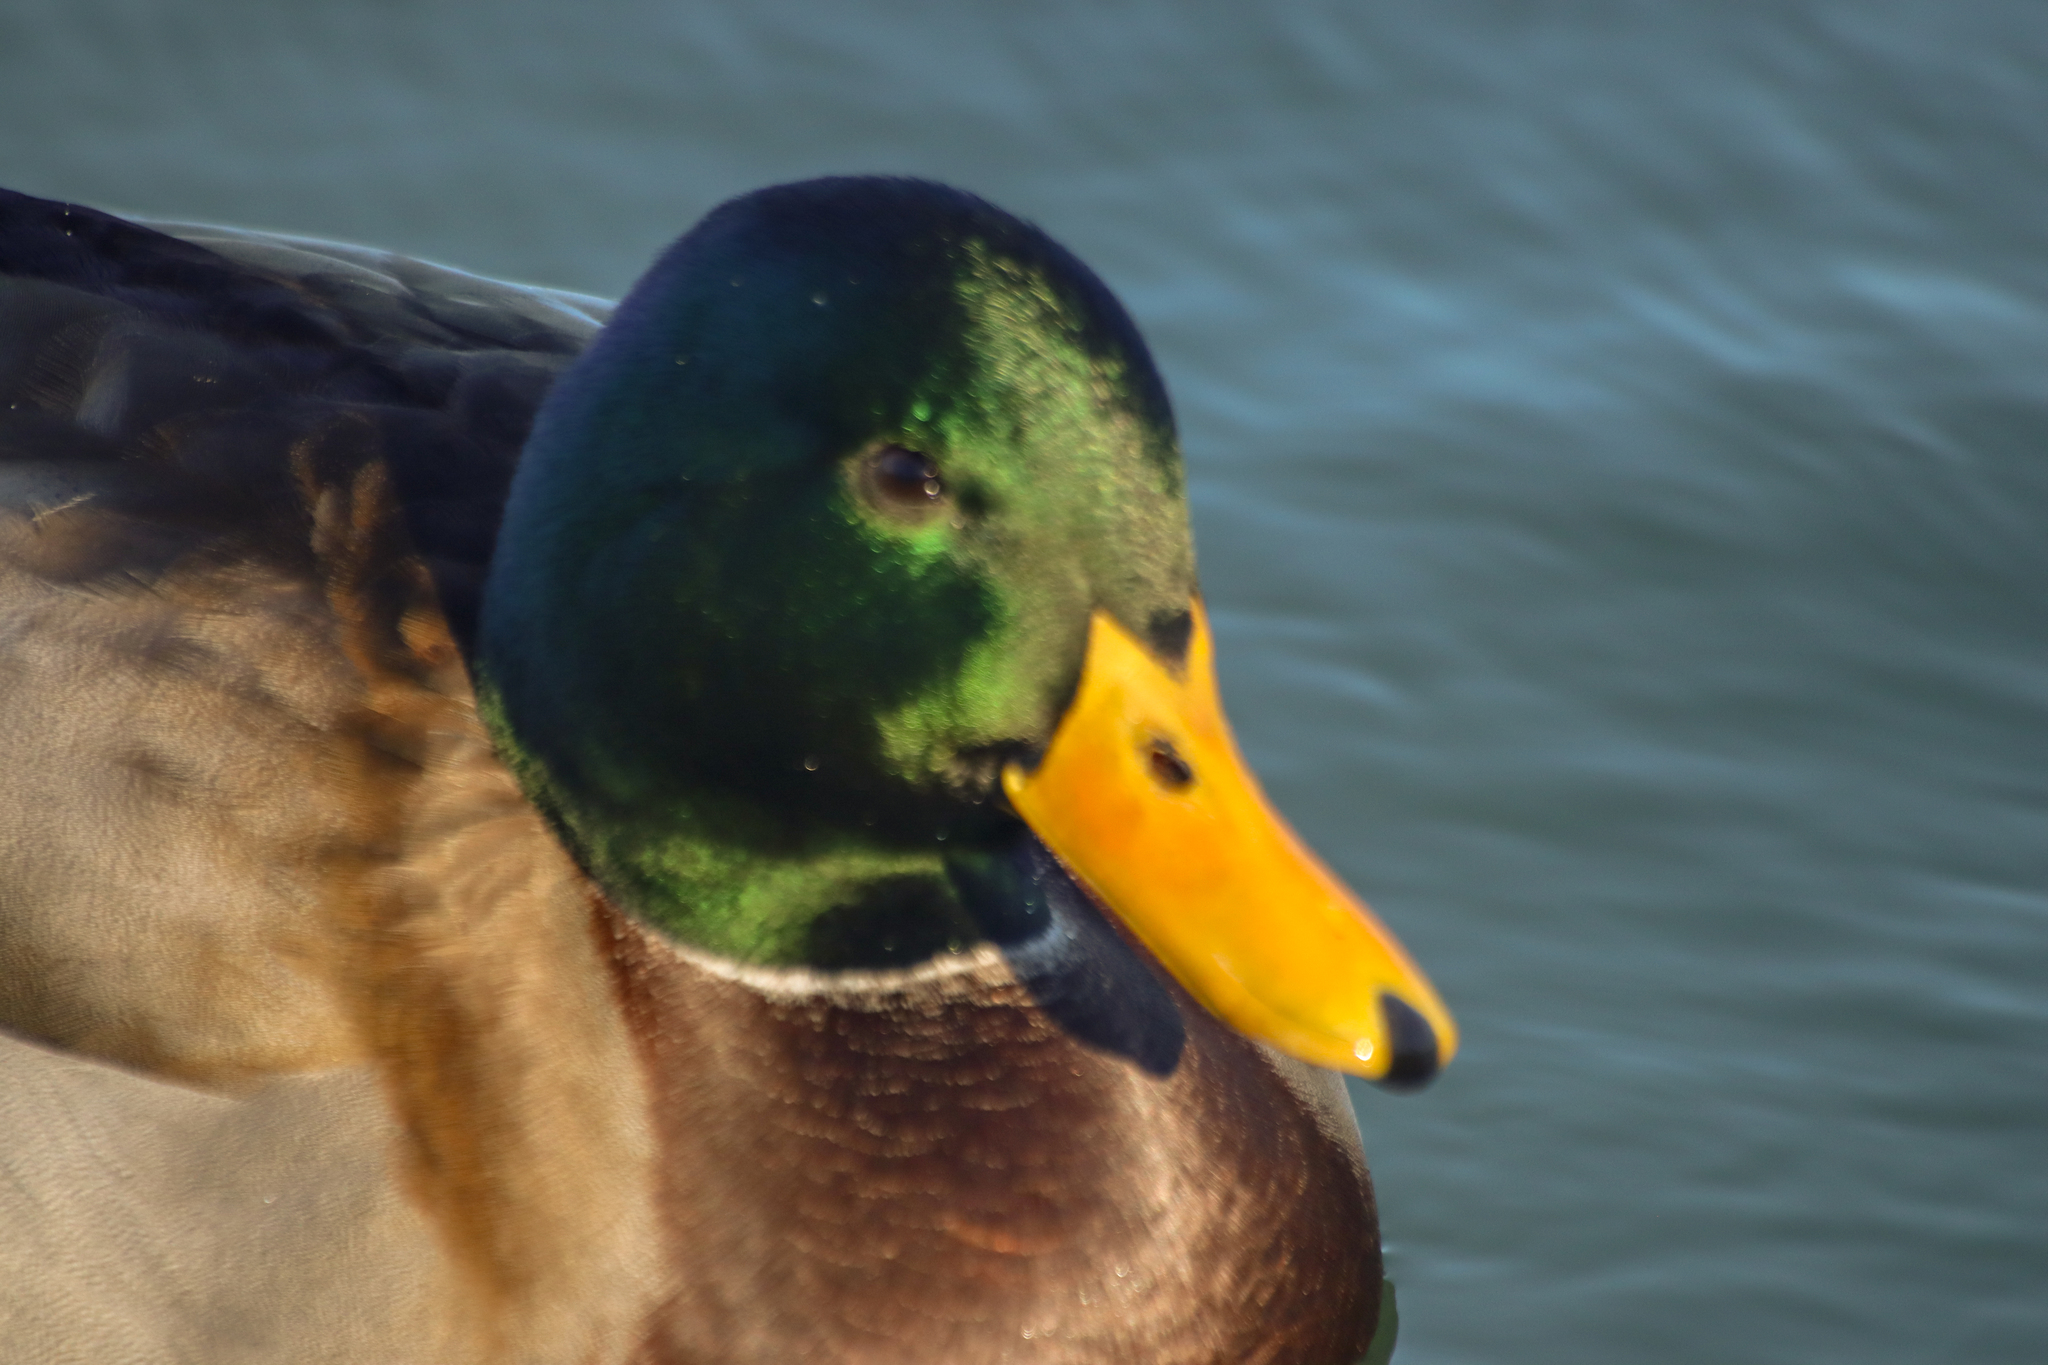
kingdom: Animalia
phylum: Chordata
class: Aves
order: Anseriformes
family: Anatidae
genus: Anas
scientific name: Anas platyrhynchos
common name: Mallard
